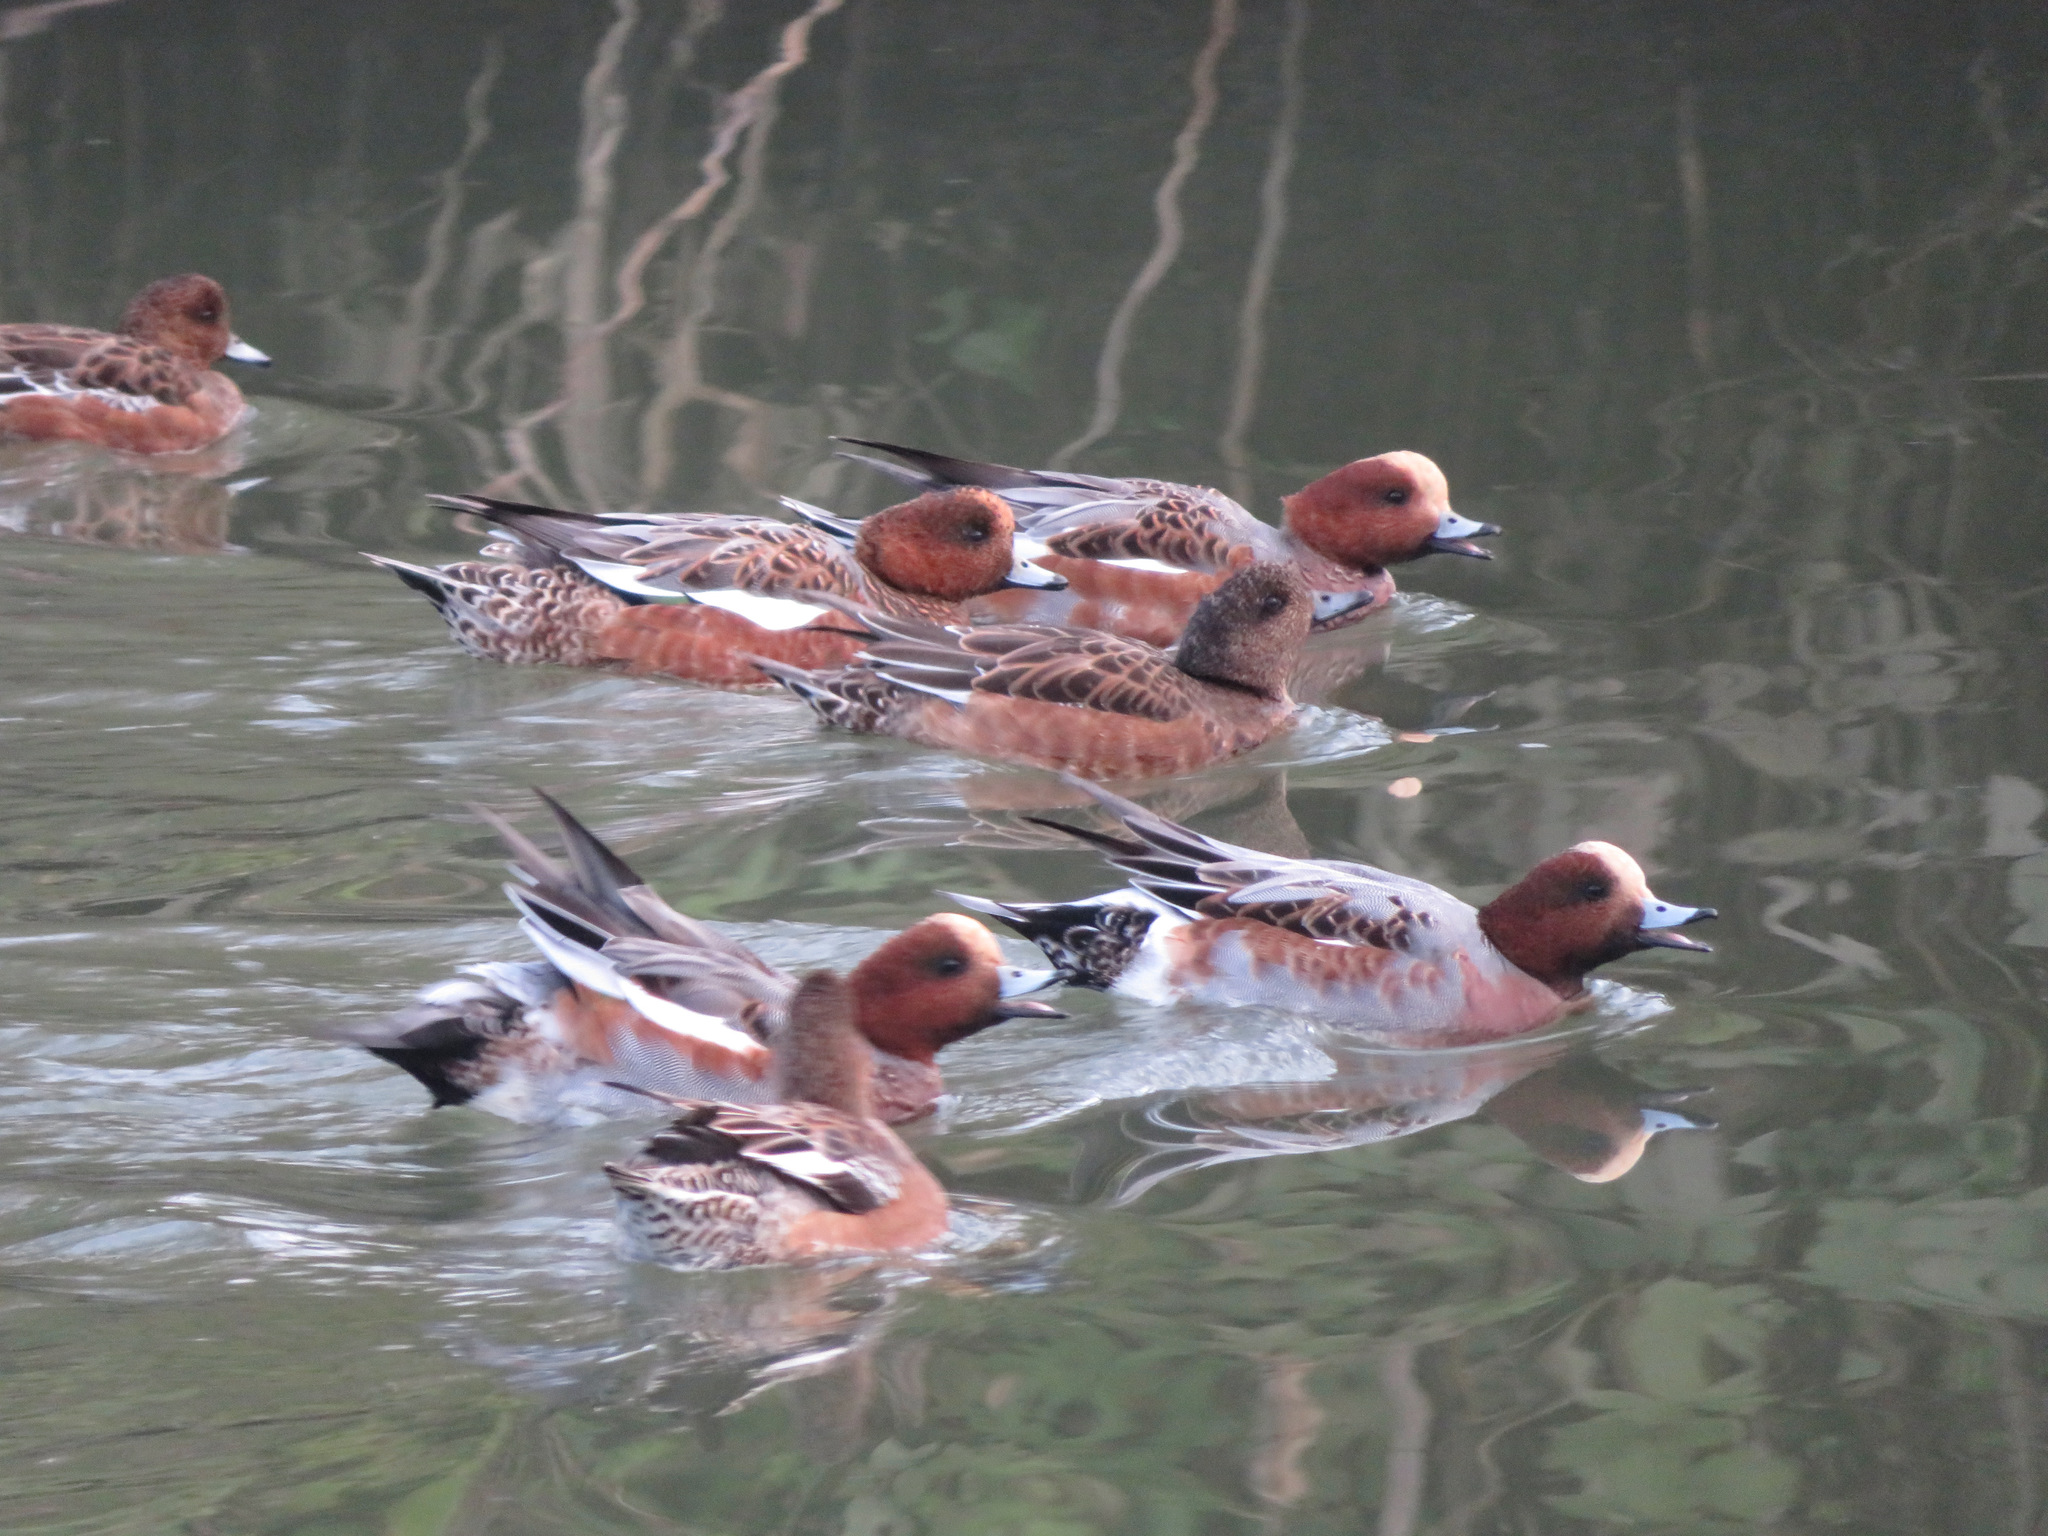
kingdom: Animalia
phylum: Chordata
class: Aves
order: Anseriformes
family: Anatidae
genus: Mareca
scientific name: Mareca penelope
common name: Eurasian wigeon
